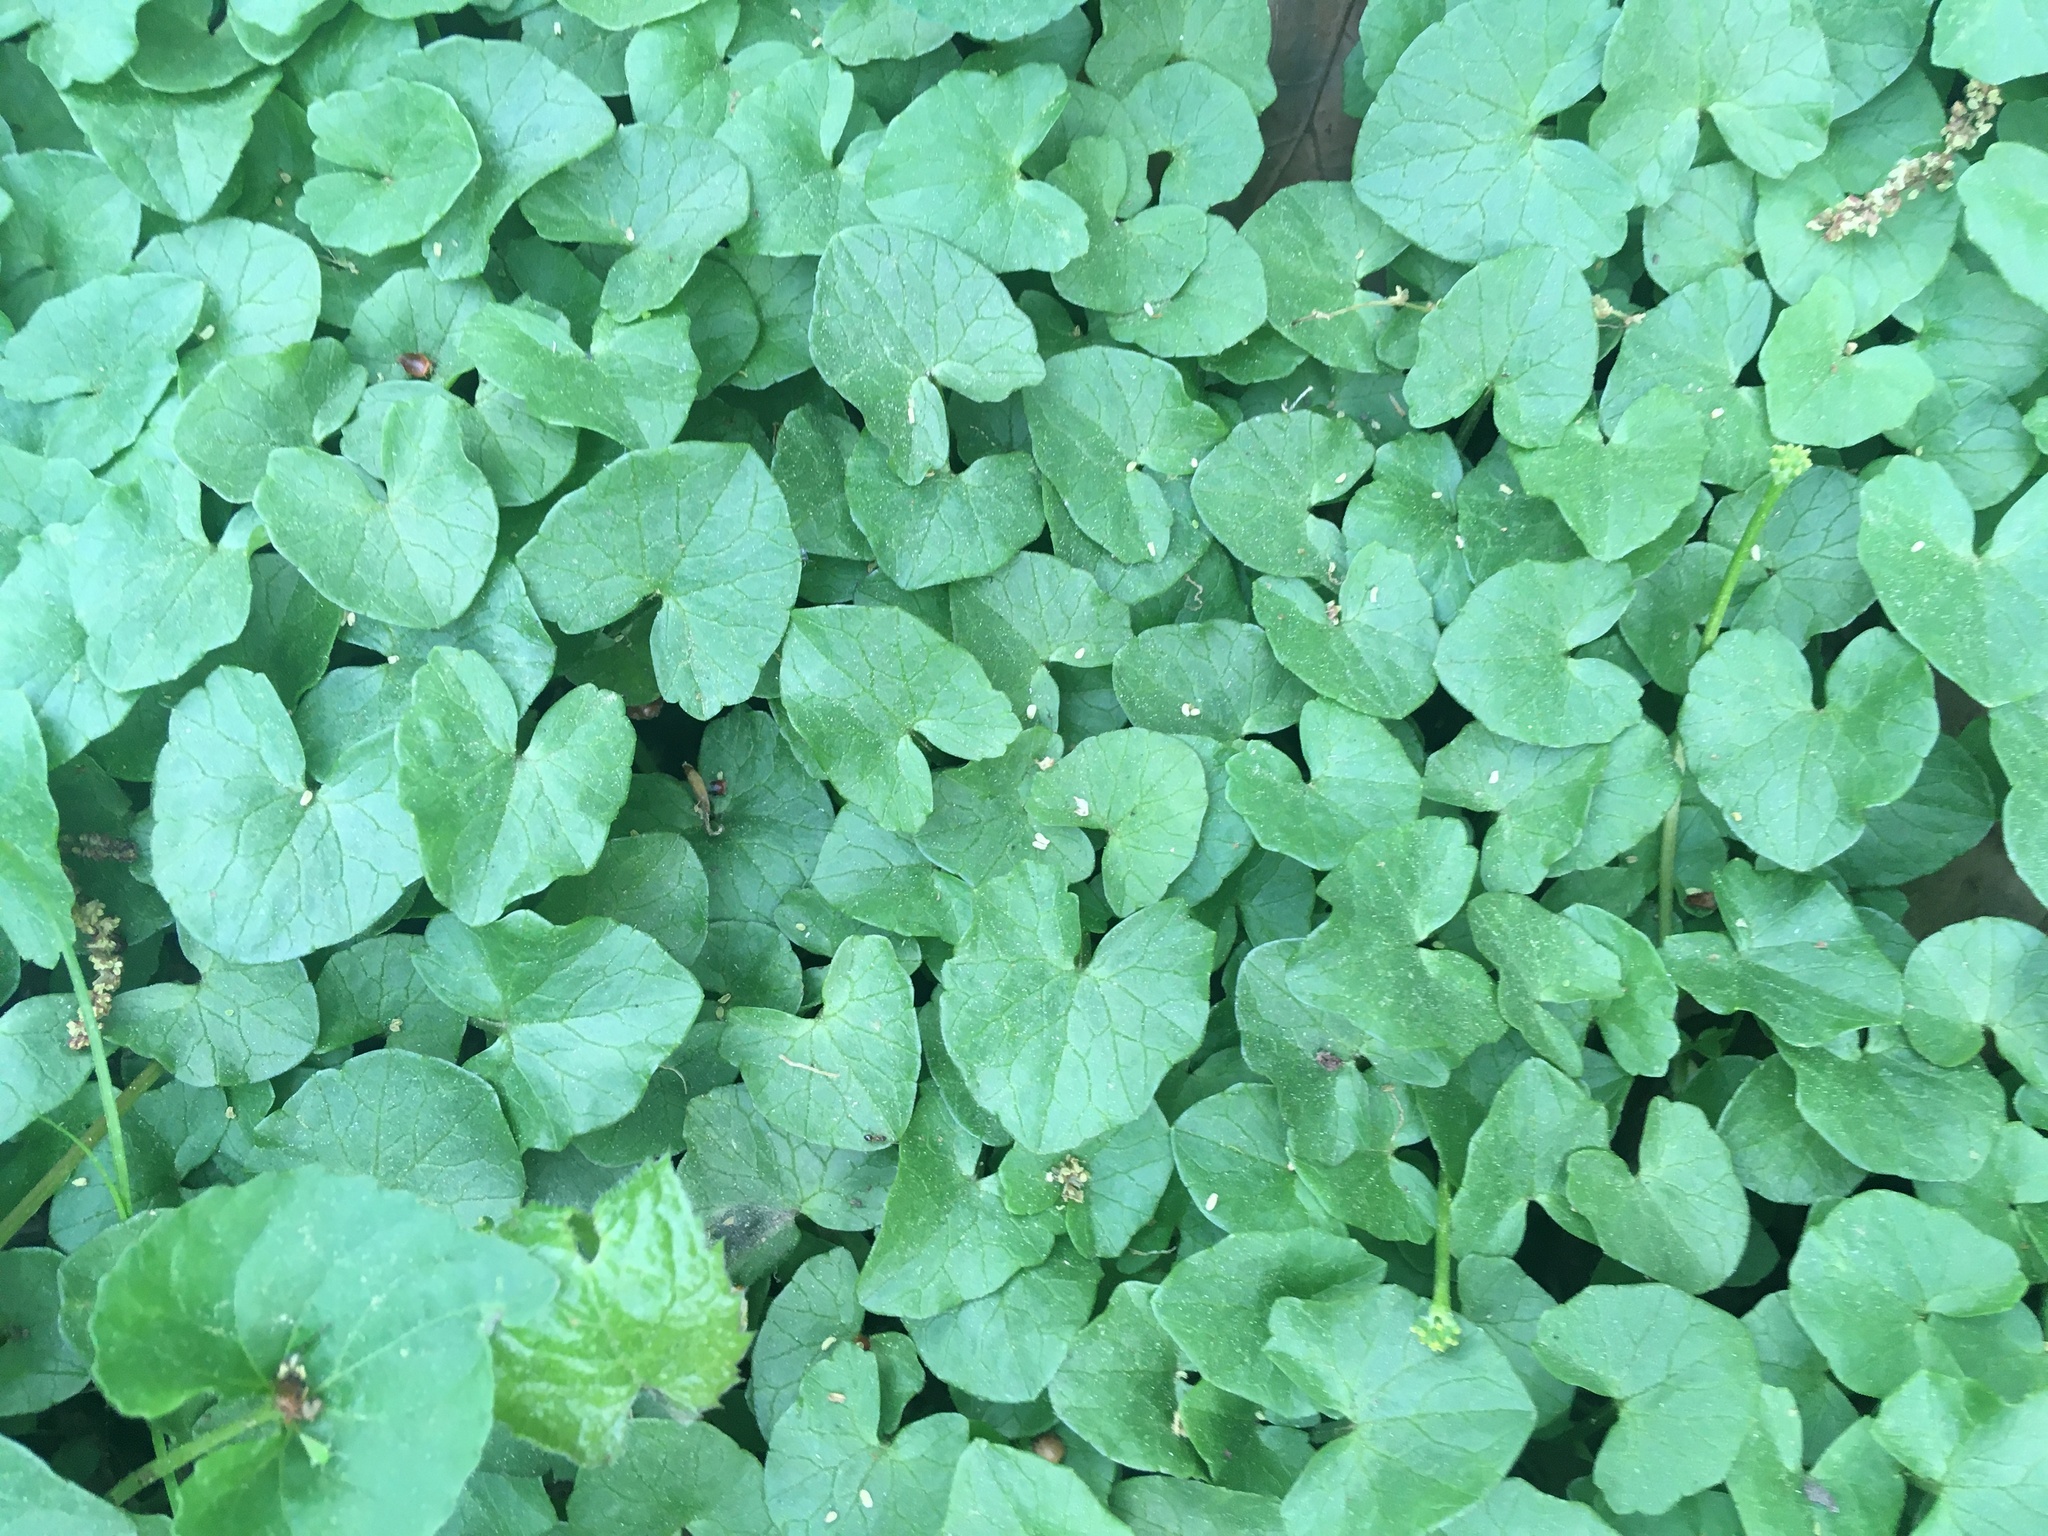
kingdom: Plantae
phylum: Tracheophyta
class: Magnoliopsida
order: Ranunculales
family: Ranunculaceae
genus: Ficaria
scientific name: Ficaria verna
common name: Lesser celandine
